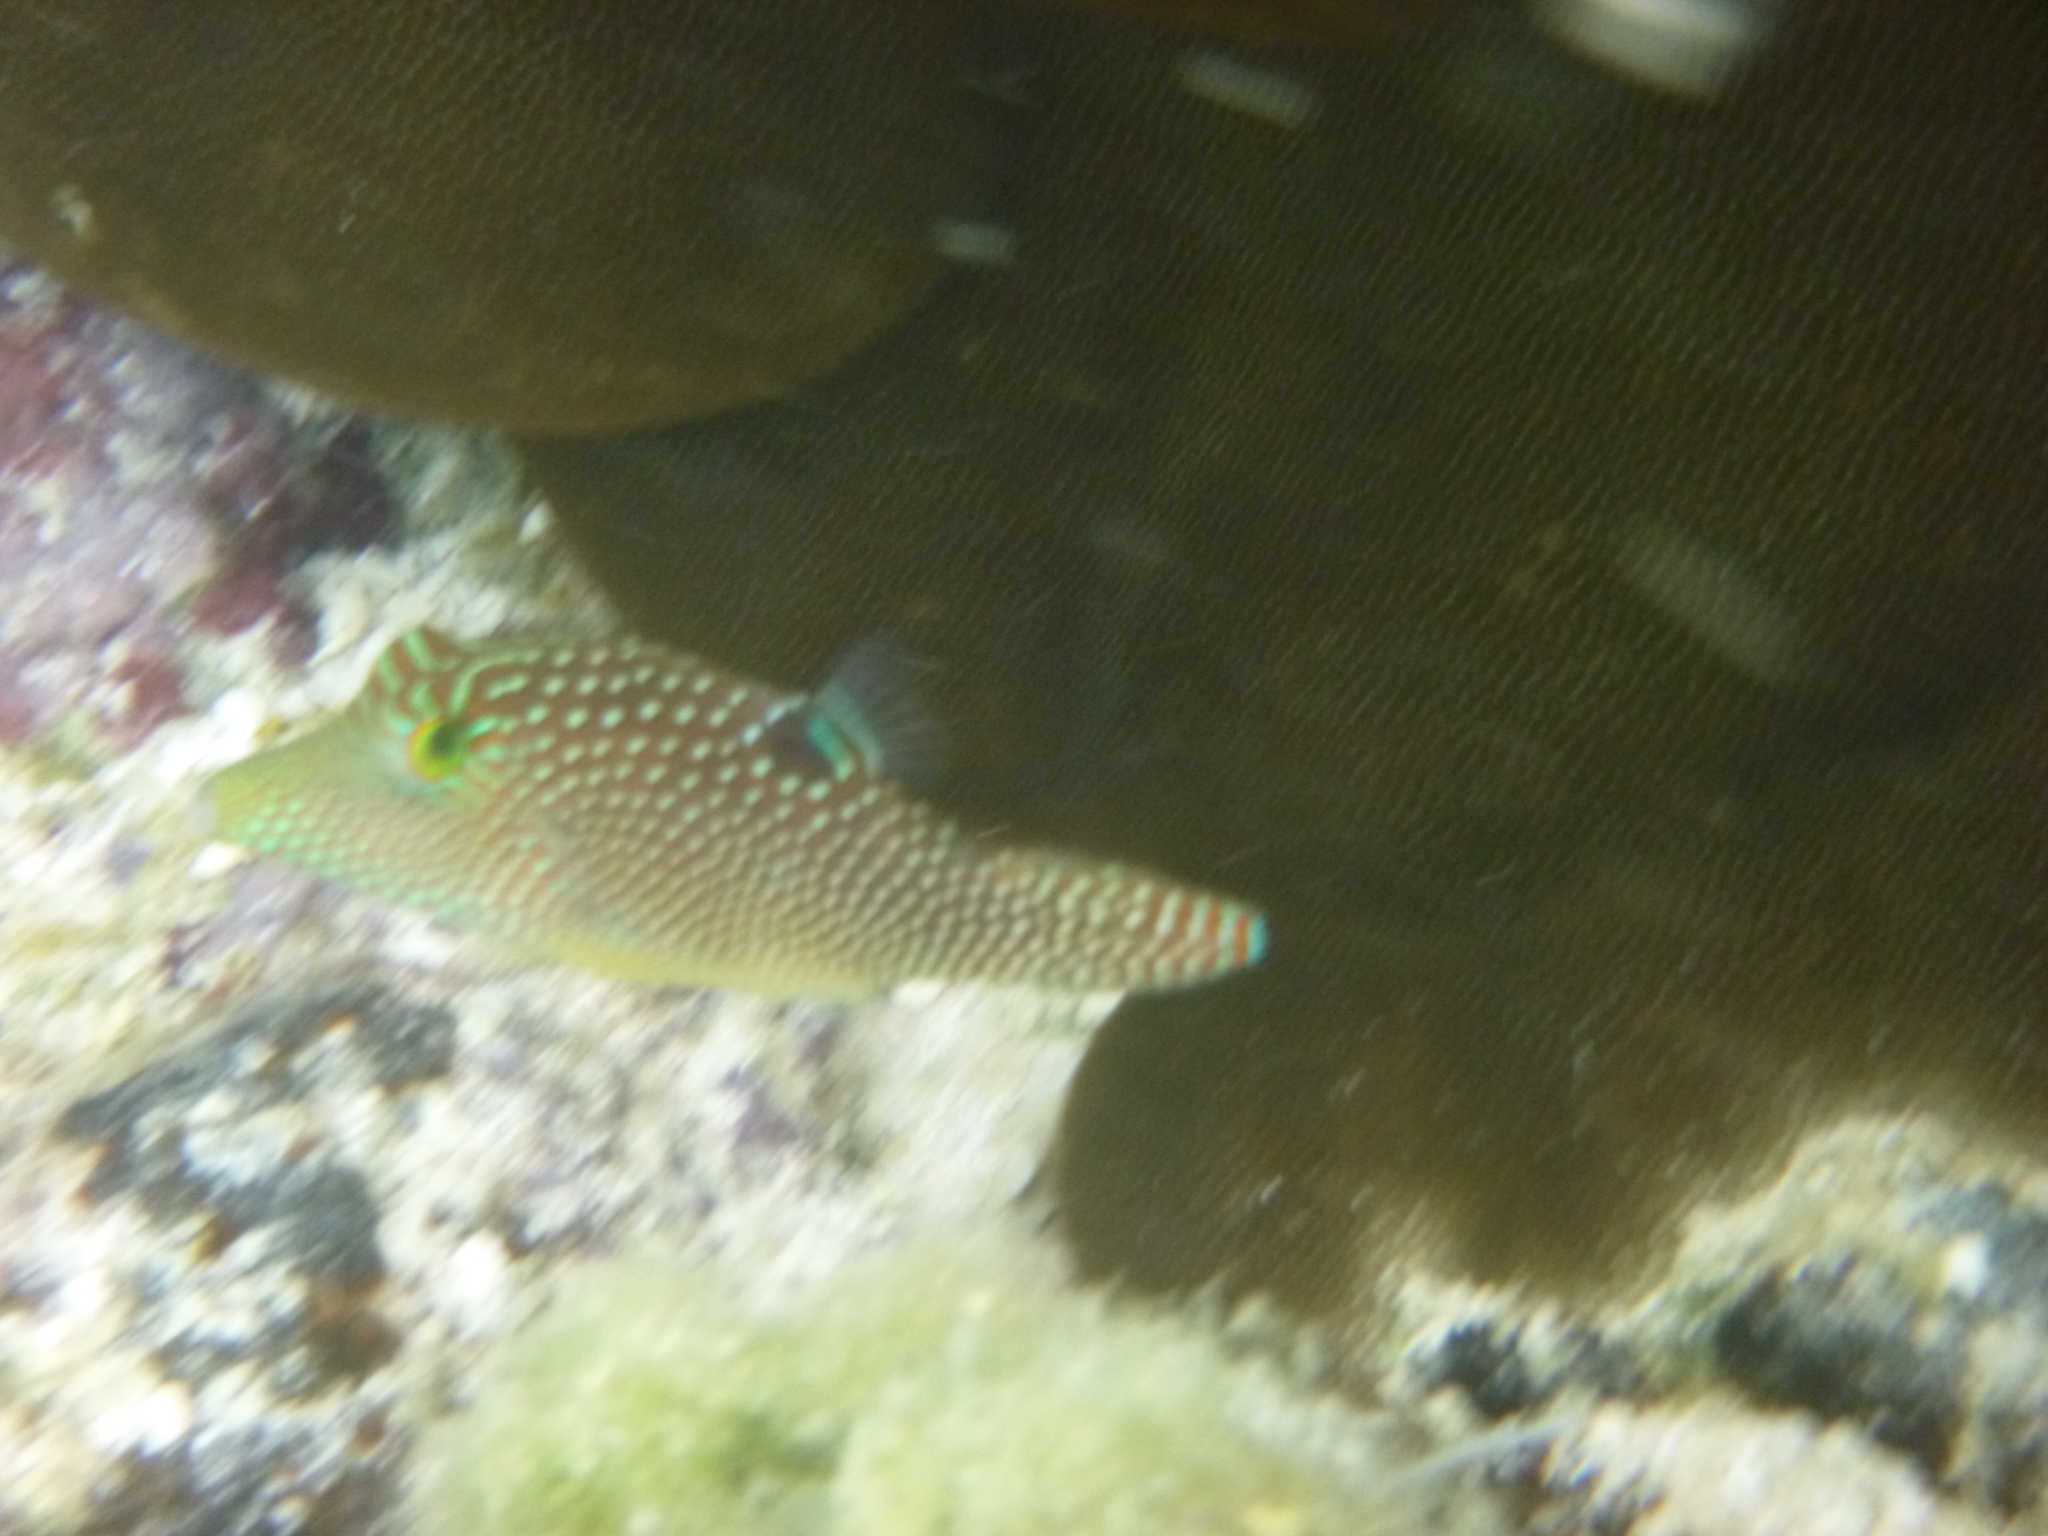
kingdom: Animalia
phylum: Chordata
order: Tetraodontiformes
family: Tetraodontidae
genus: Canthigaster
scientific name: Canthigaster solandri
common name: False-eye toby
